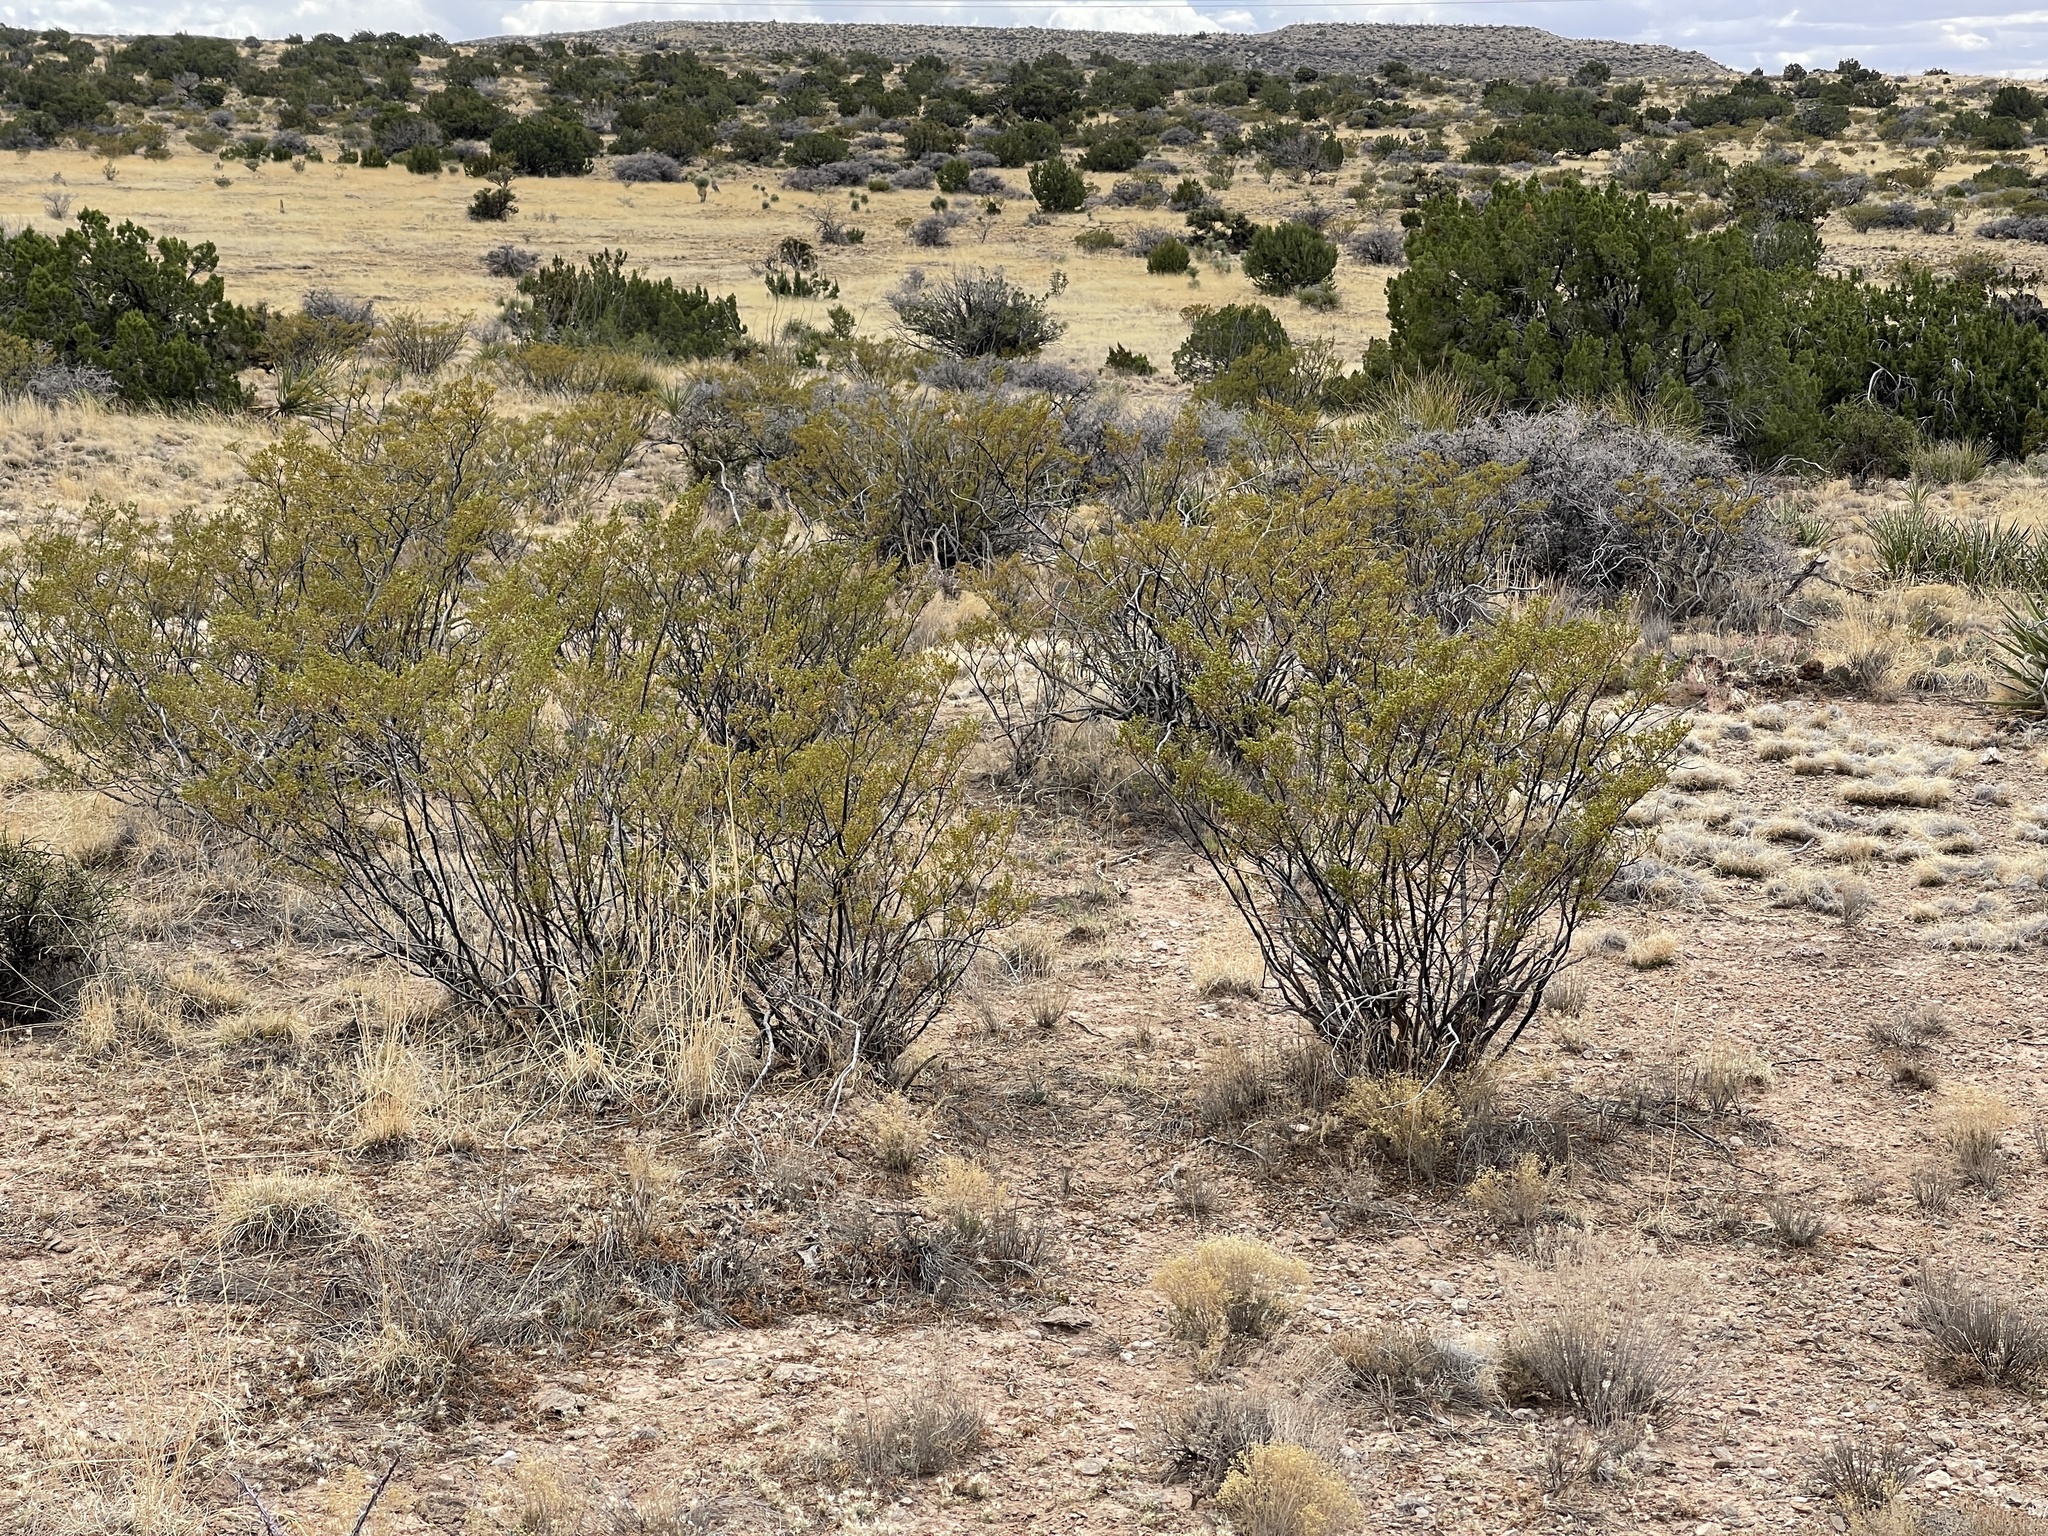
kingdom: Plantae
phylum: Tracheophyta
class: Magnoliopsida
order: Zygophyllales
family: Zygophyllaceae
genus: Larrea
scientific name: Larrea tridentata
